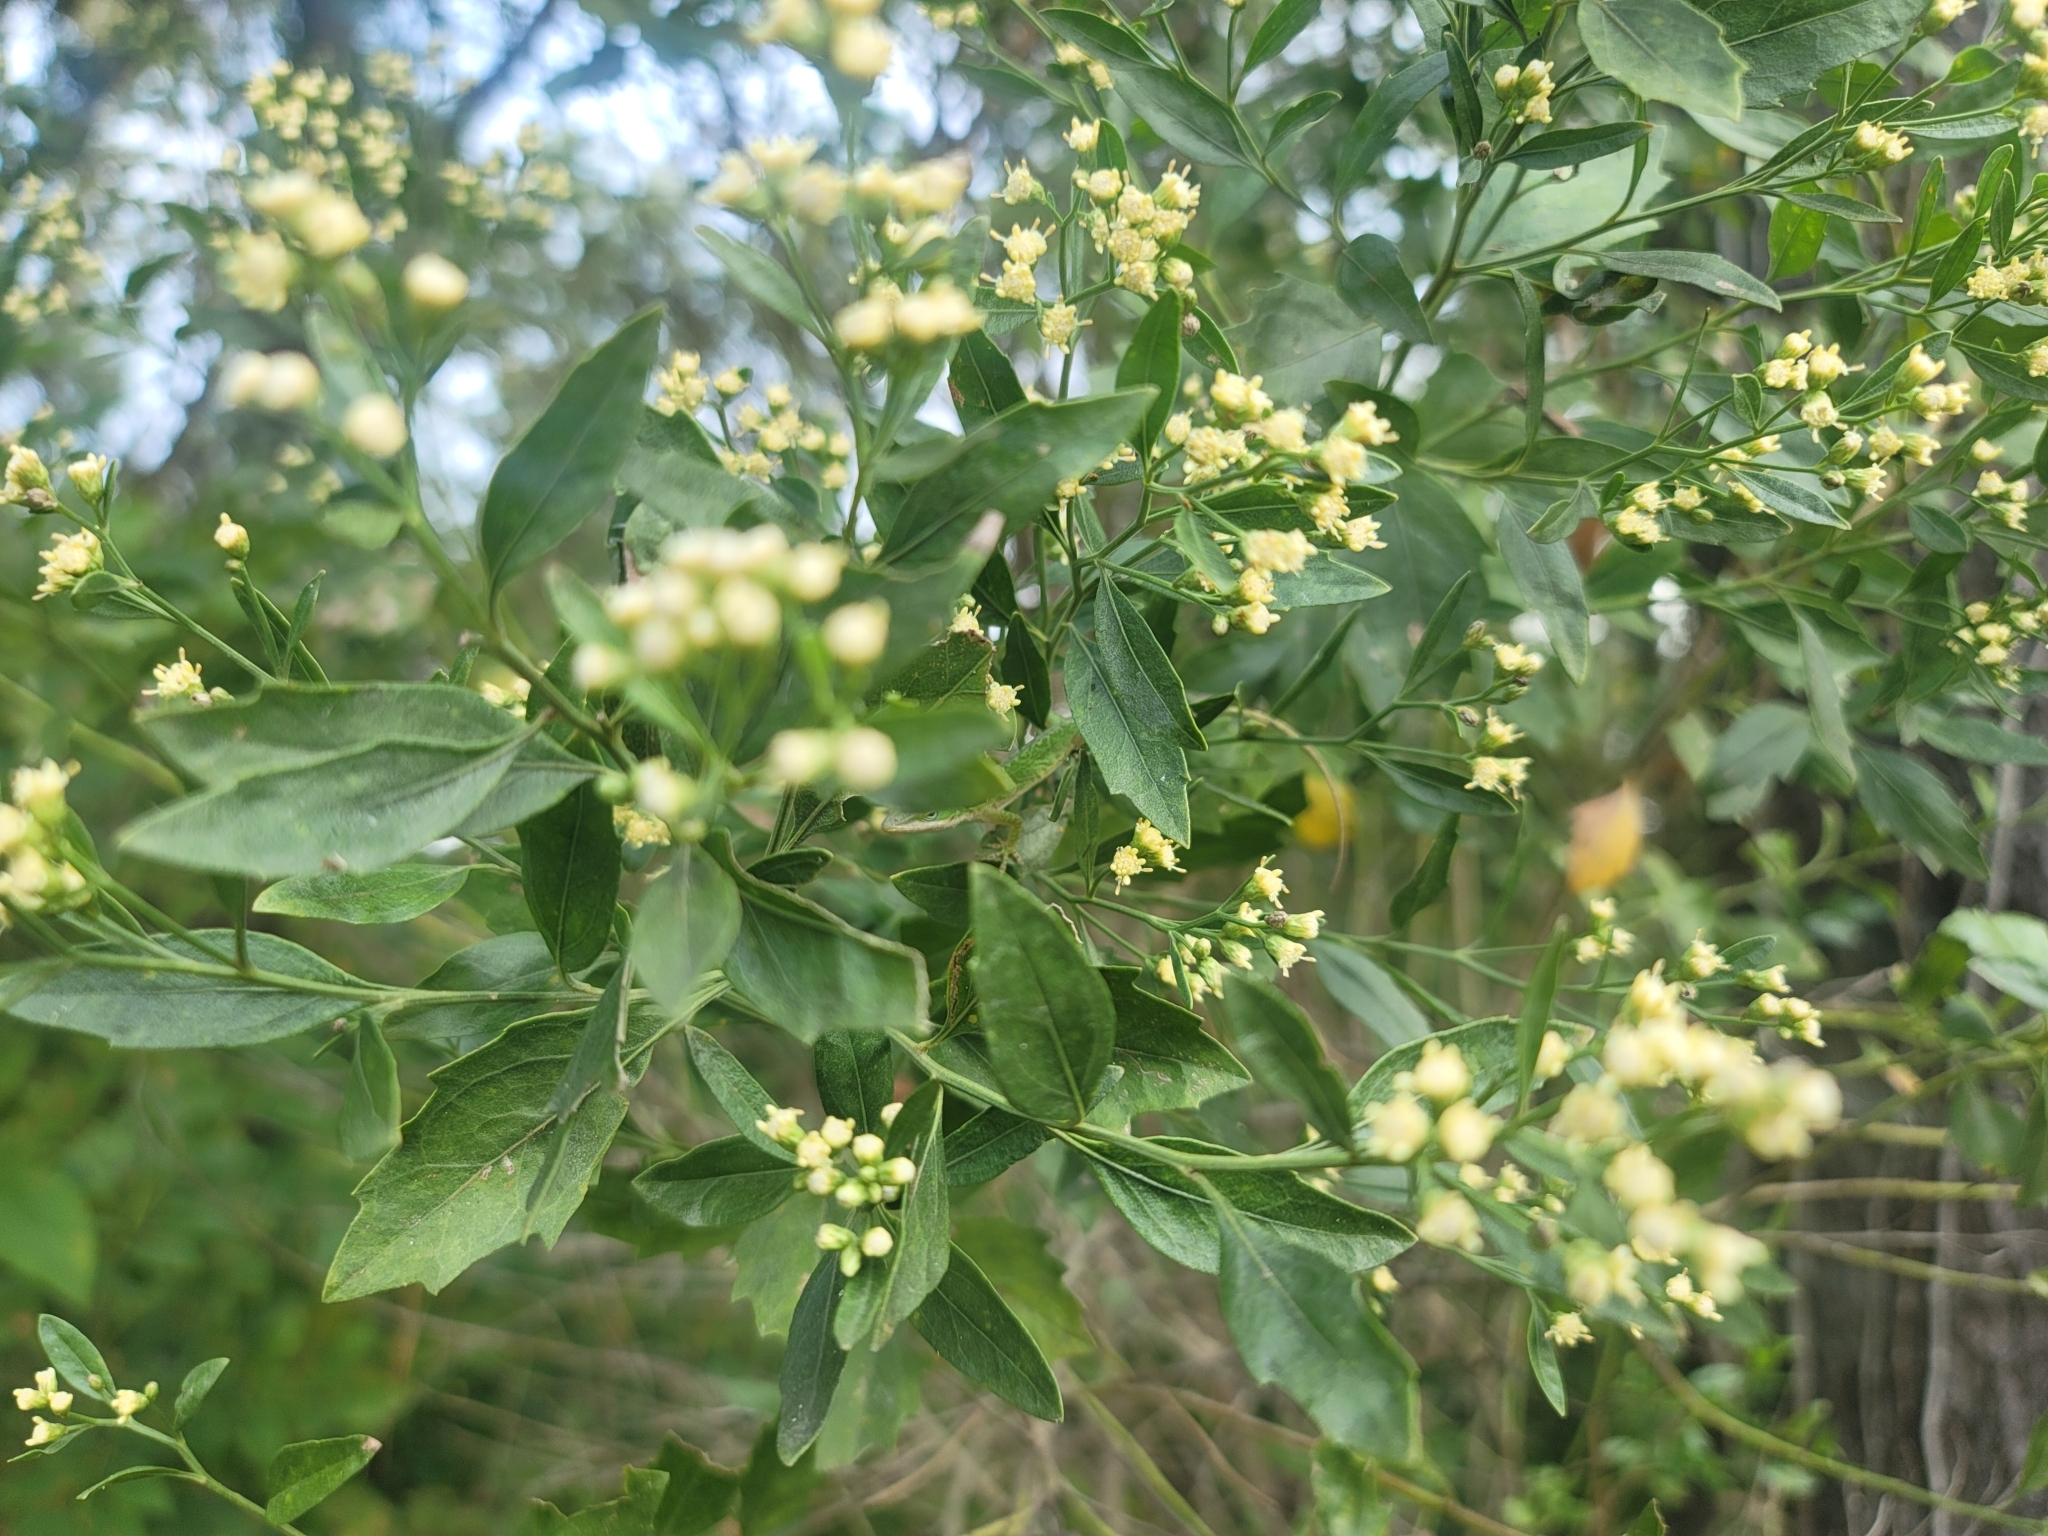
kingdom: Plantae
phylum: Tracheophyta
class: Magnoliopsida
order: Asterales
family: Asteraceae
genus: Baccharis
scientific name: Baccharis halimifolia
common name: Eastern baccharis
